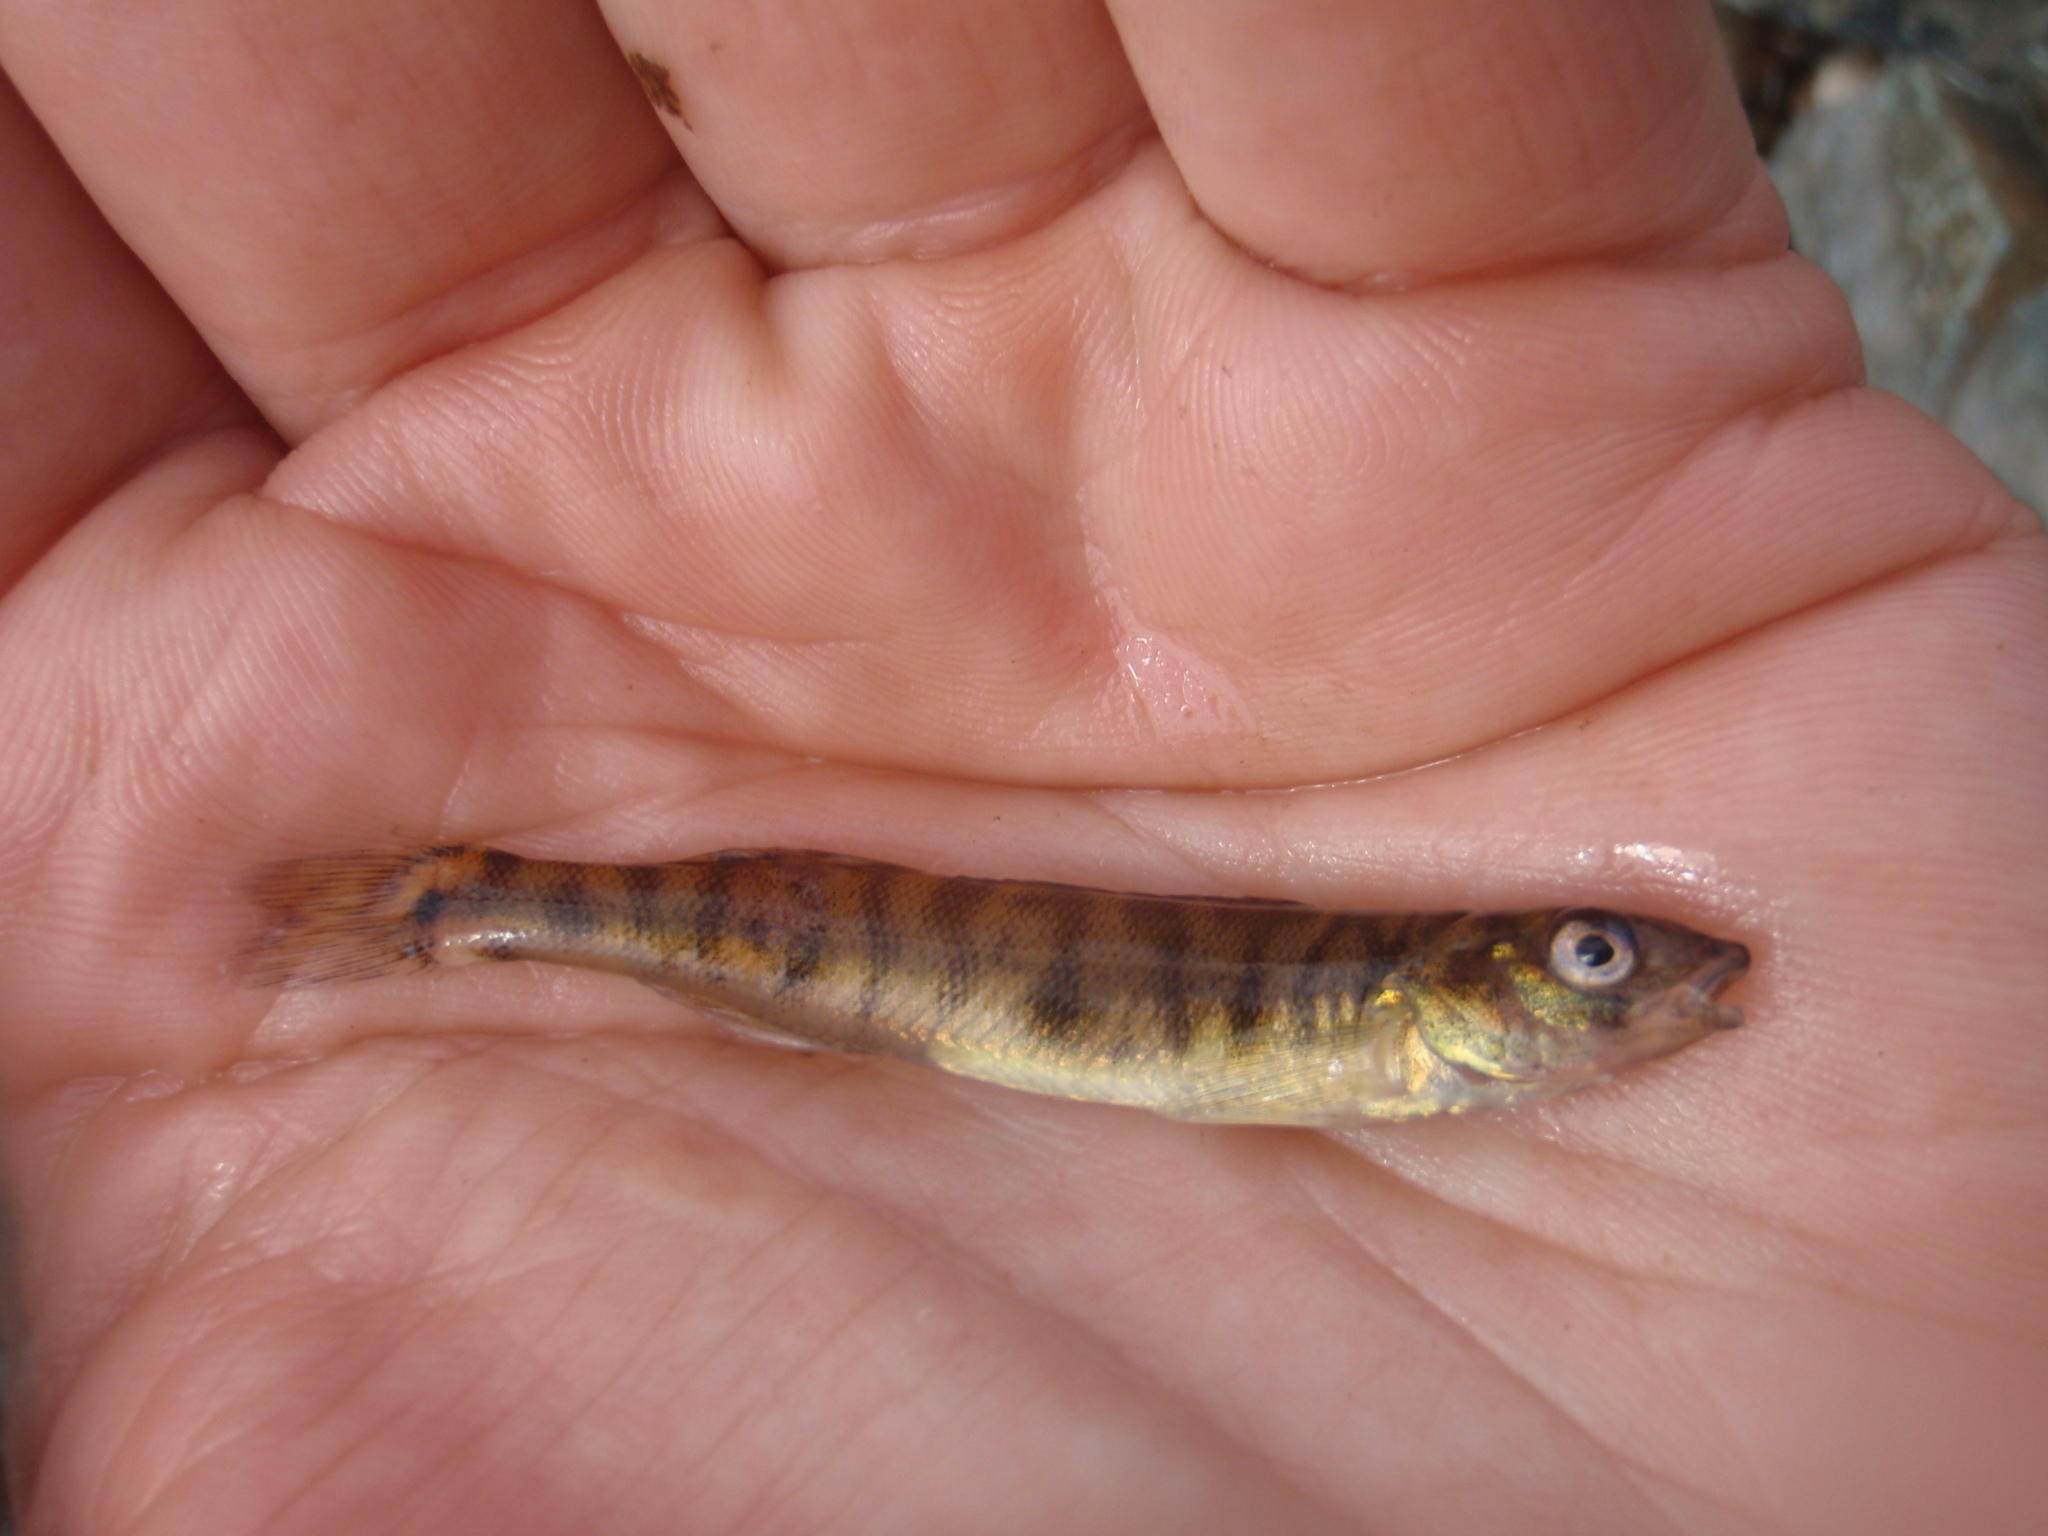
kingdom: Animalia
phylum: Chordata
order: Perciformes
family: Percidae
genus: Percina
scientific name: Percina caprodes
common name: Logperch
